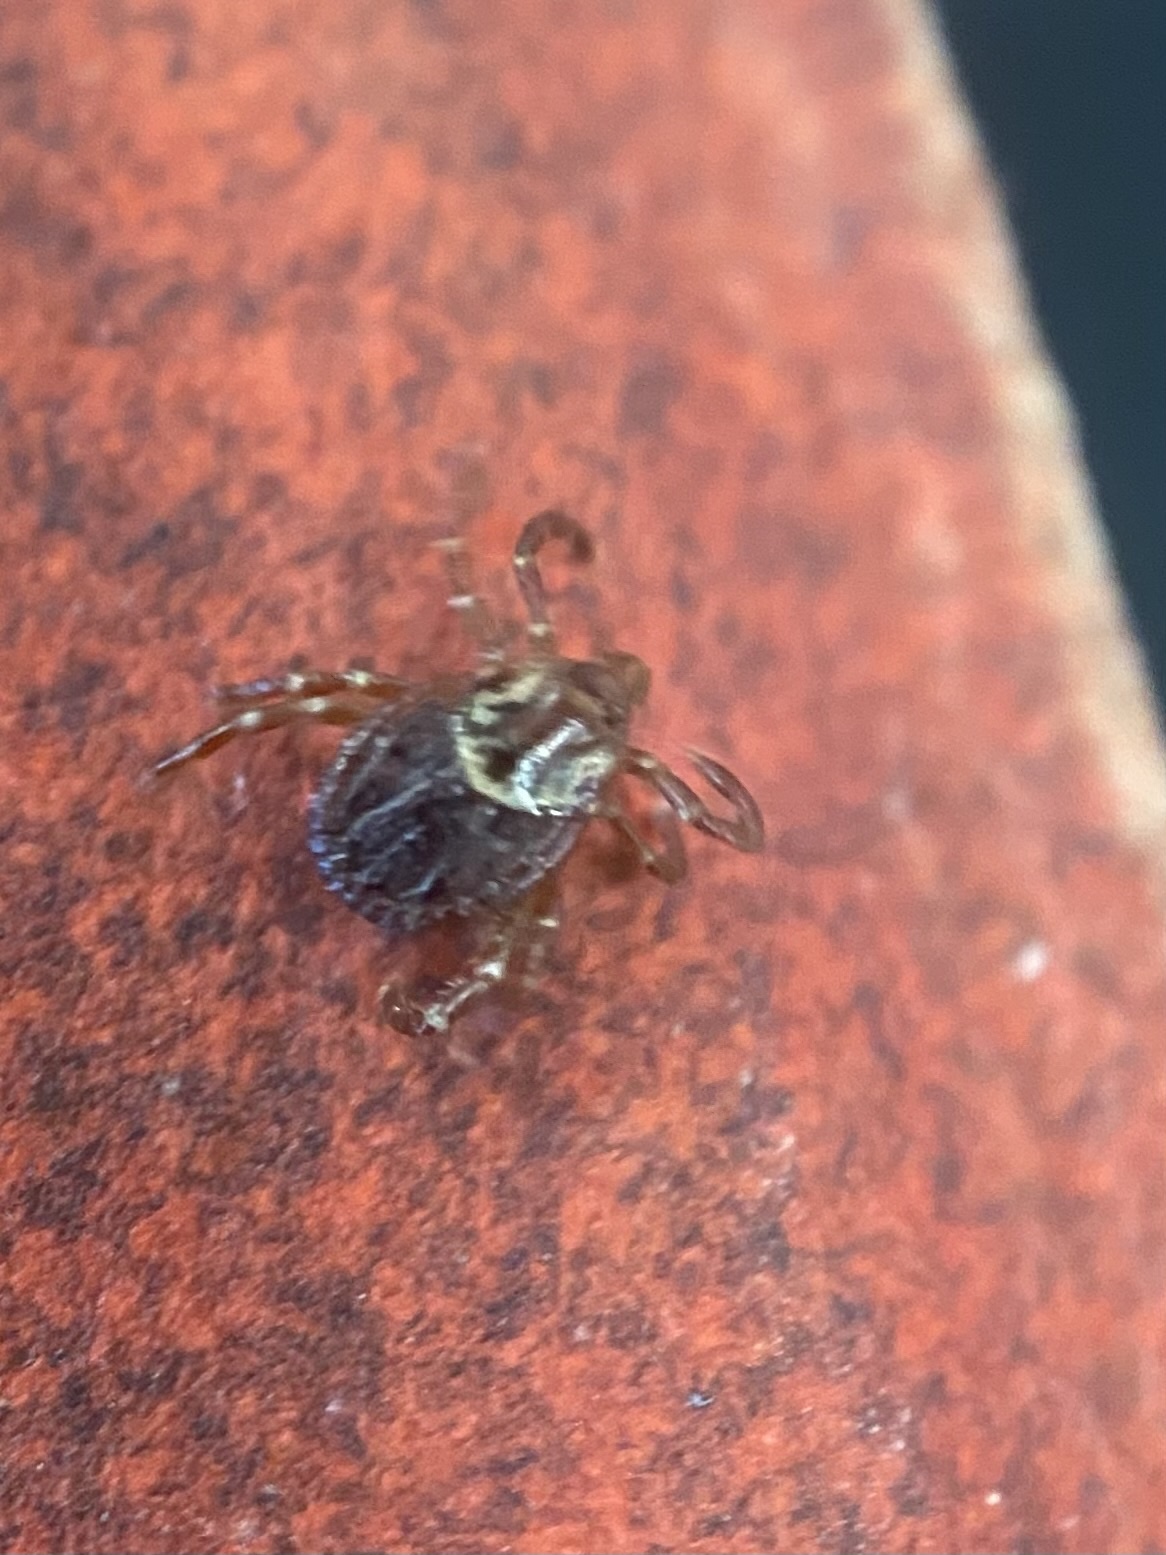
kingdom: Animalia
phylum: Arthropoda
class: Arachnida
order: Ixodida
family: Ixodidae
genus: Dermacentor
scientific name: Dermacentor variabilis
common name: American dog tick
